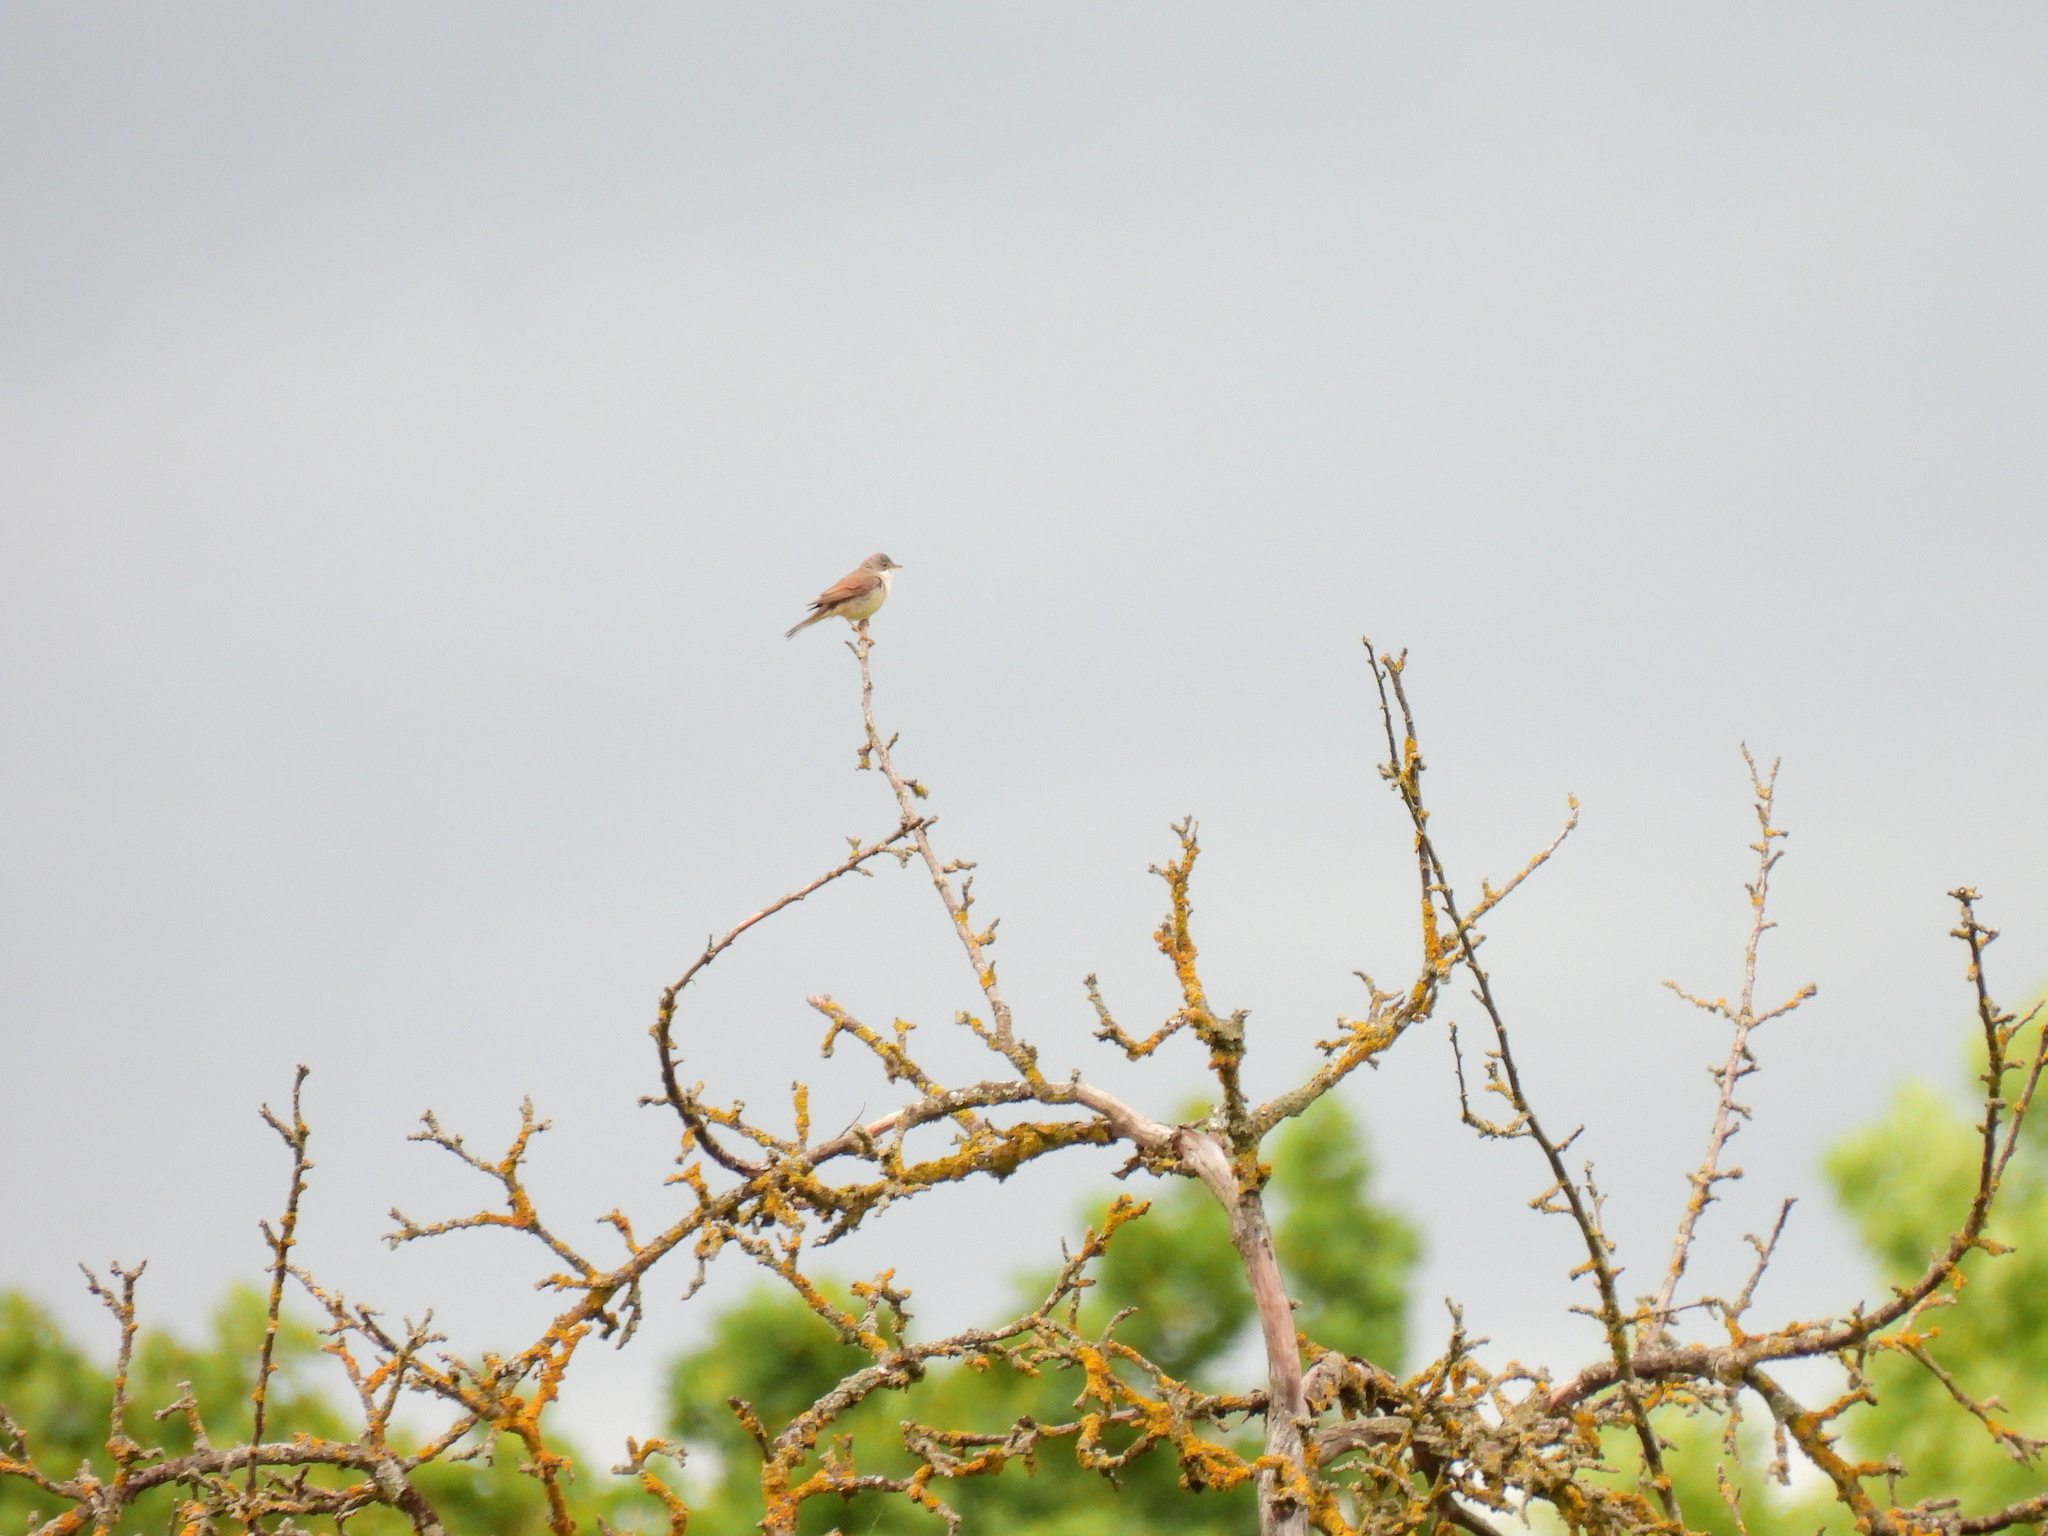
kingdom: Animalia
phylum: Chordata
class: Aves
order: Passeriformes
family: Sylviidae
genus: Sylvia
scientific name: Sylvia communis
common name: Common whitethroat
